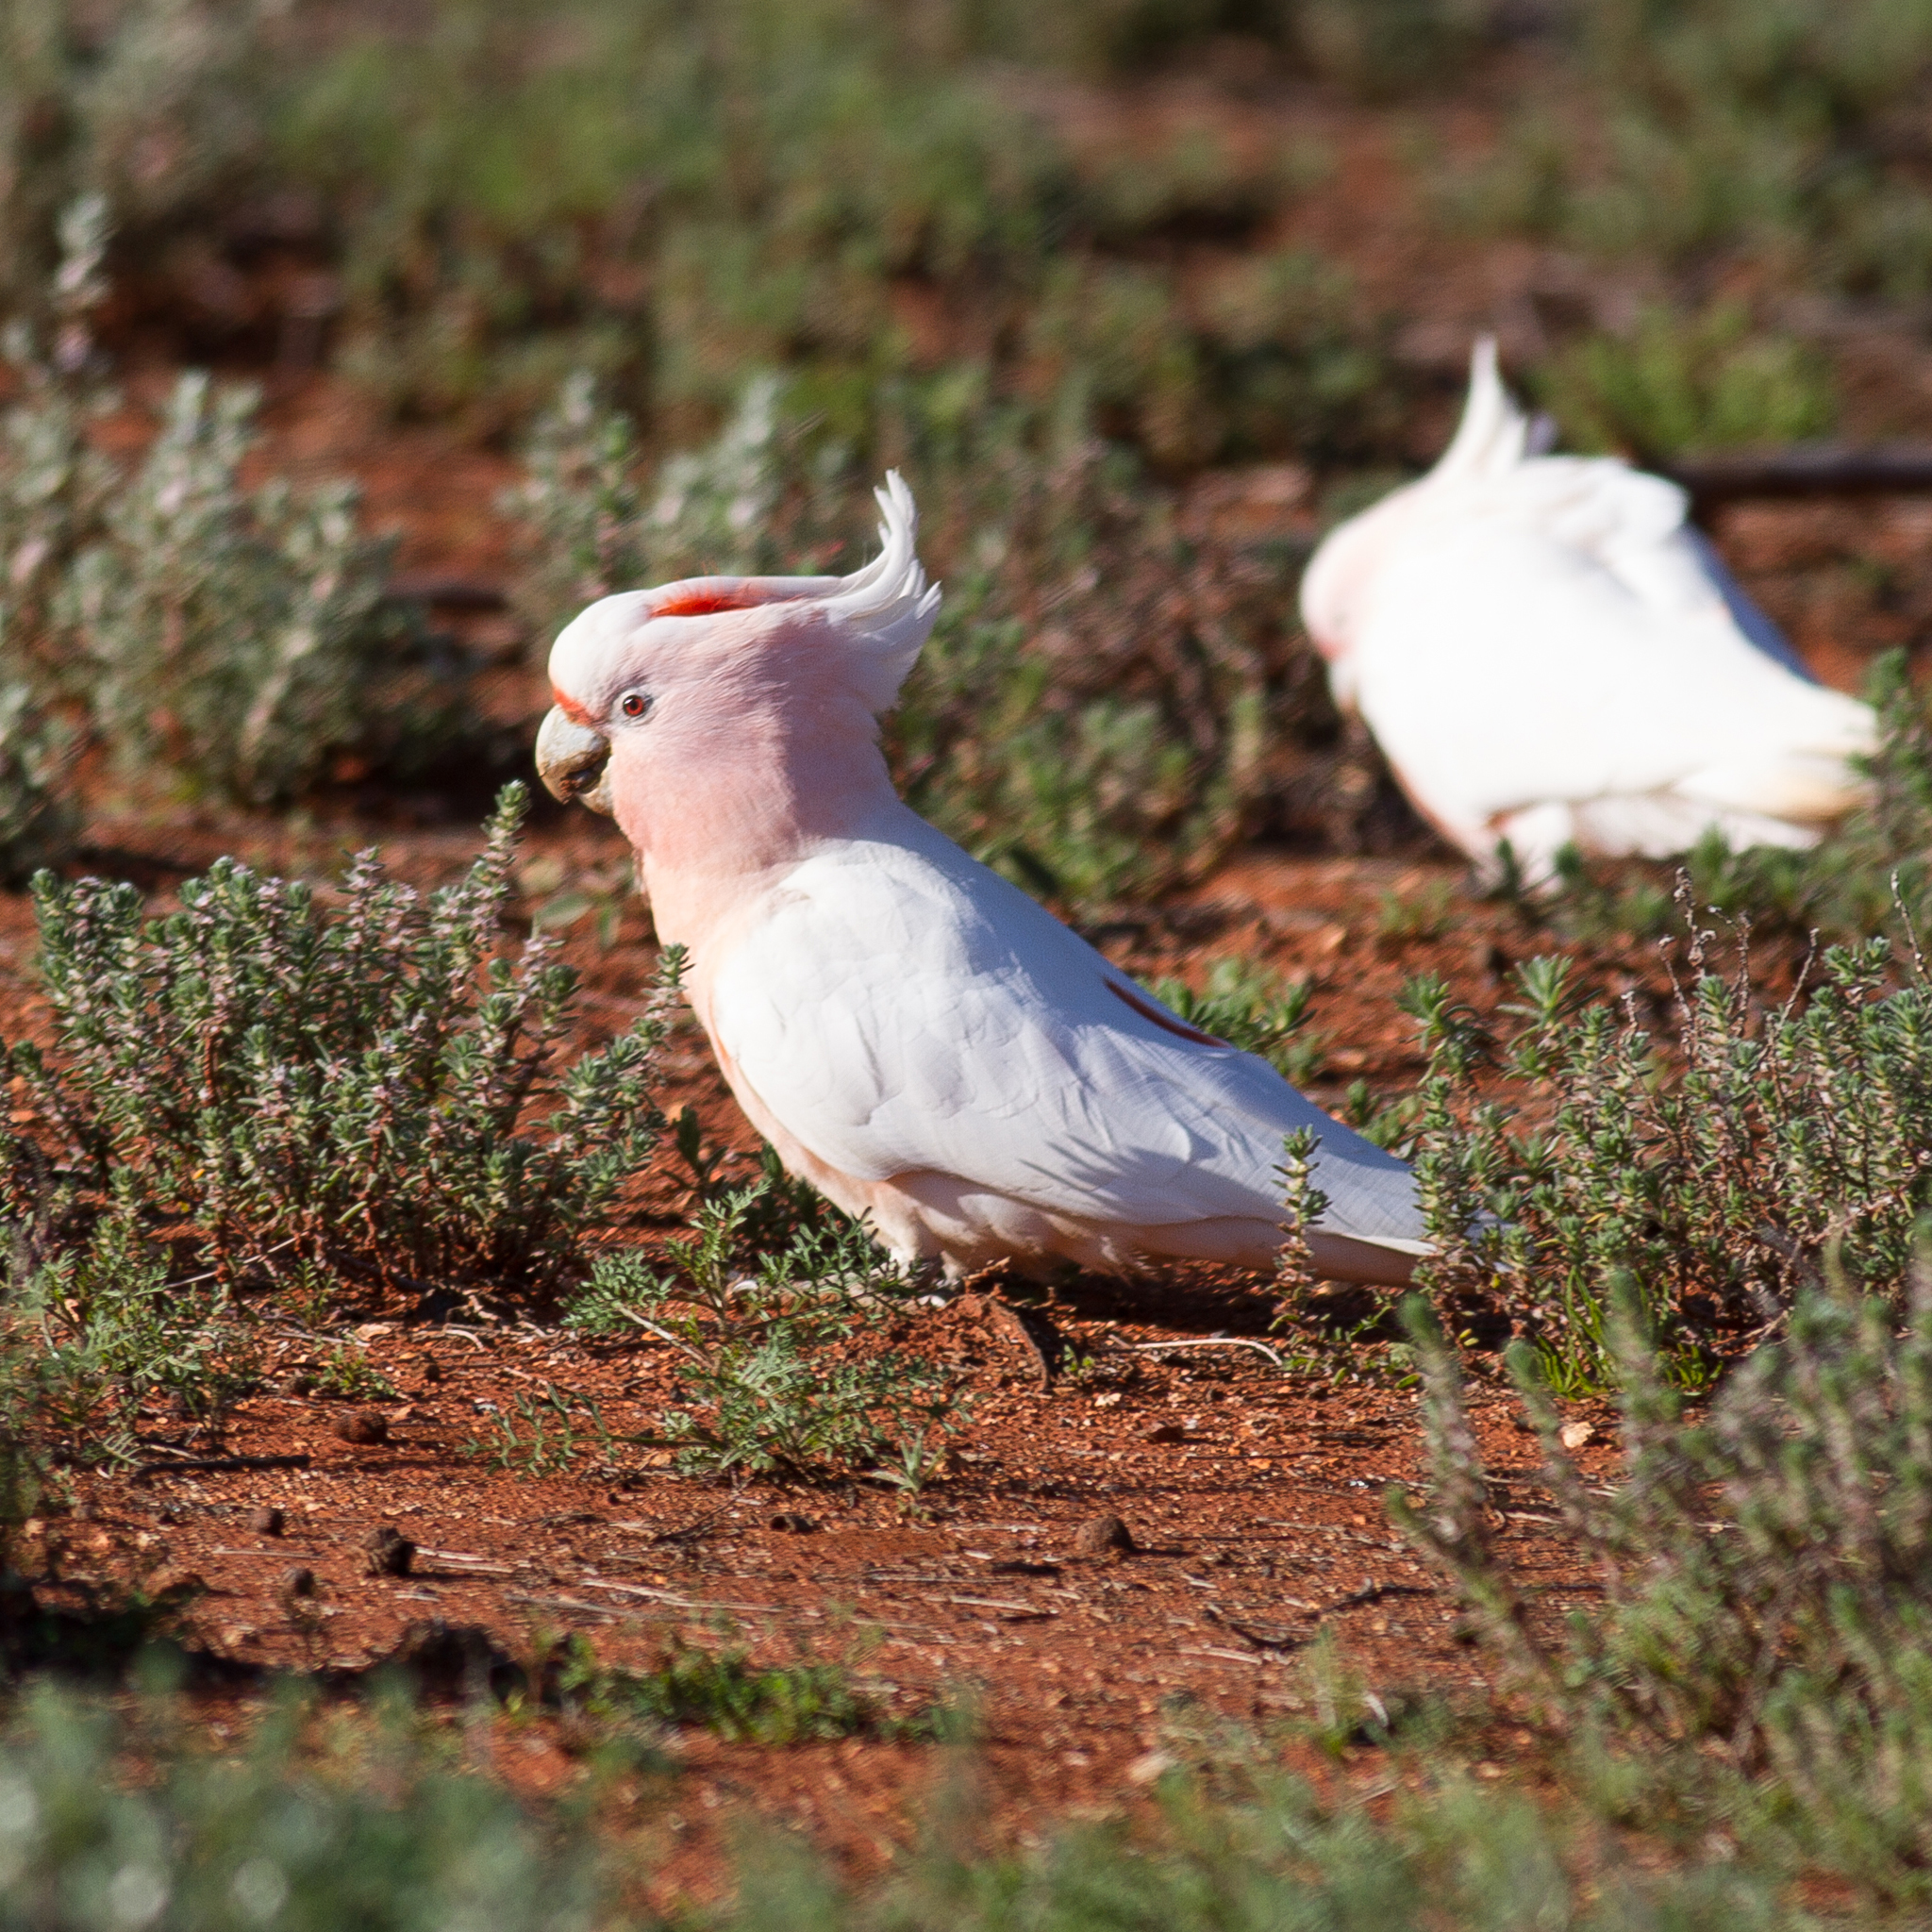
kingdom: Animalia
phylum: Chordata
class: Aves
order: Psittaciformes
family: Psittacidae
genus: Cacatua
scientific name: Cacatua leadbeateri
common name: Major mitchell's cockatoo
